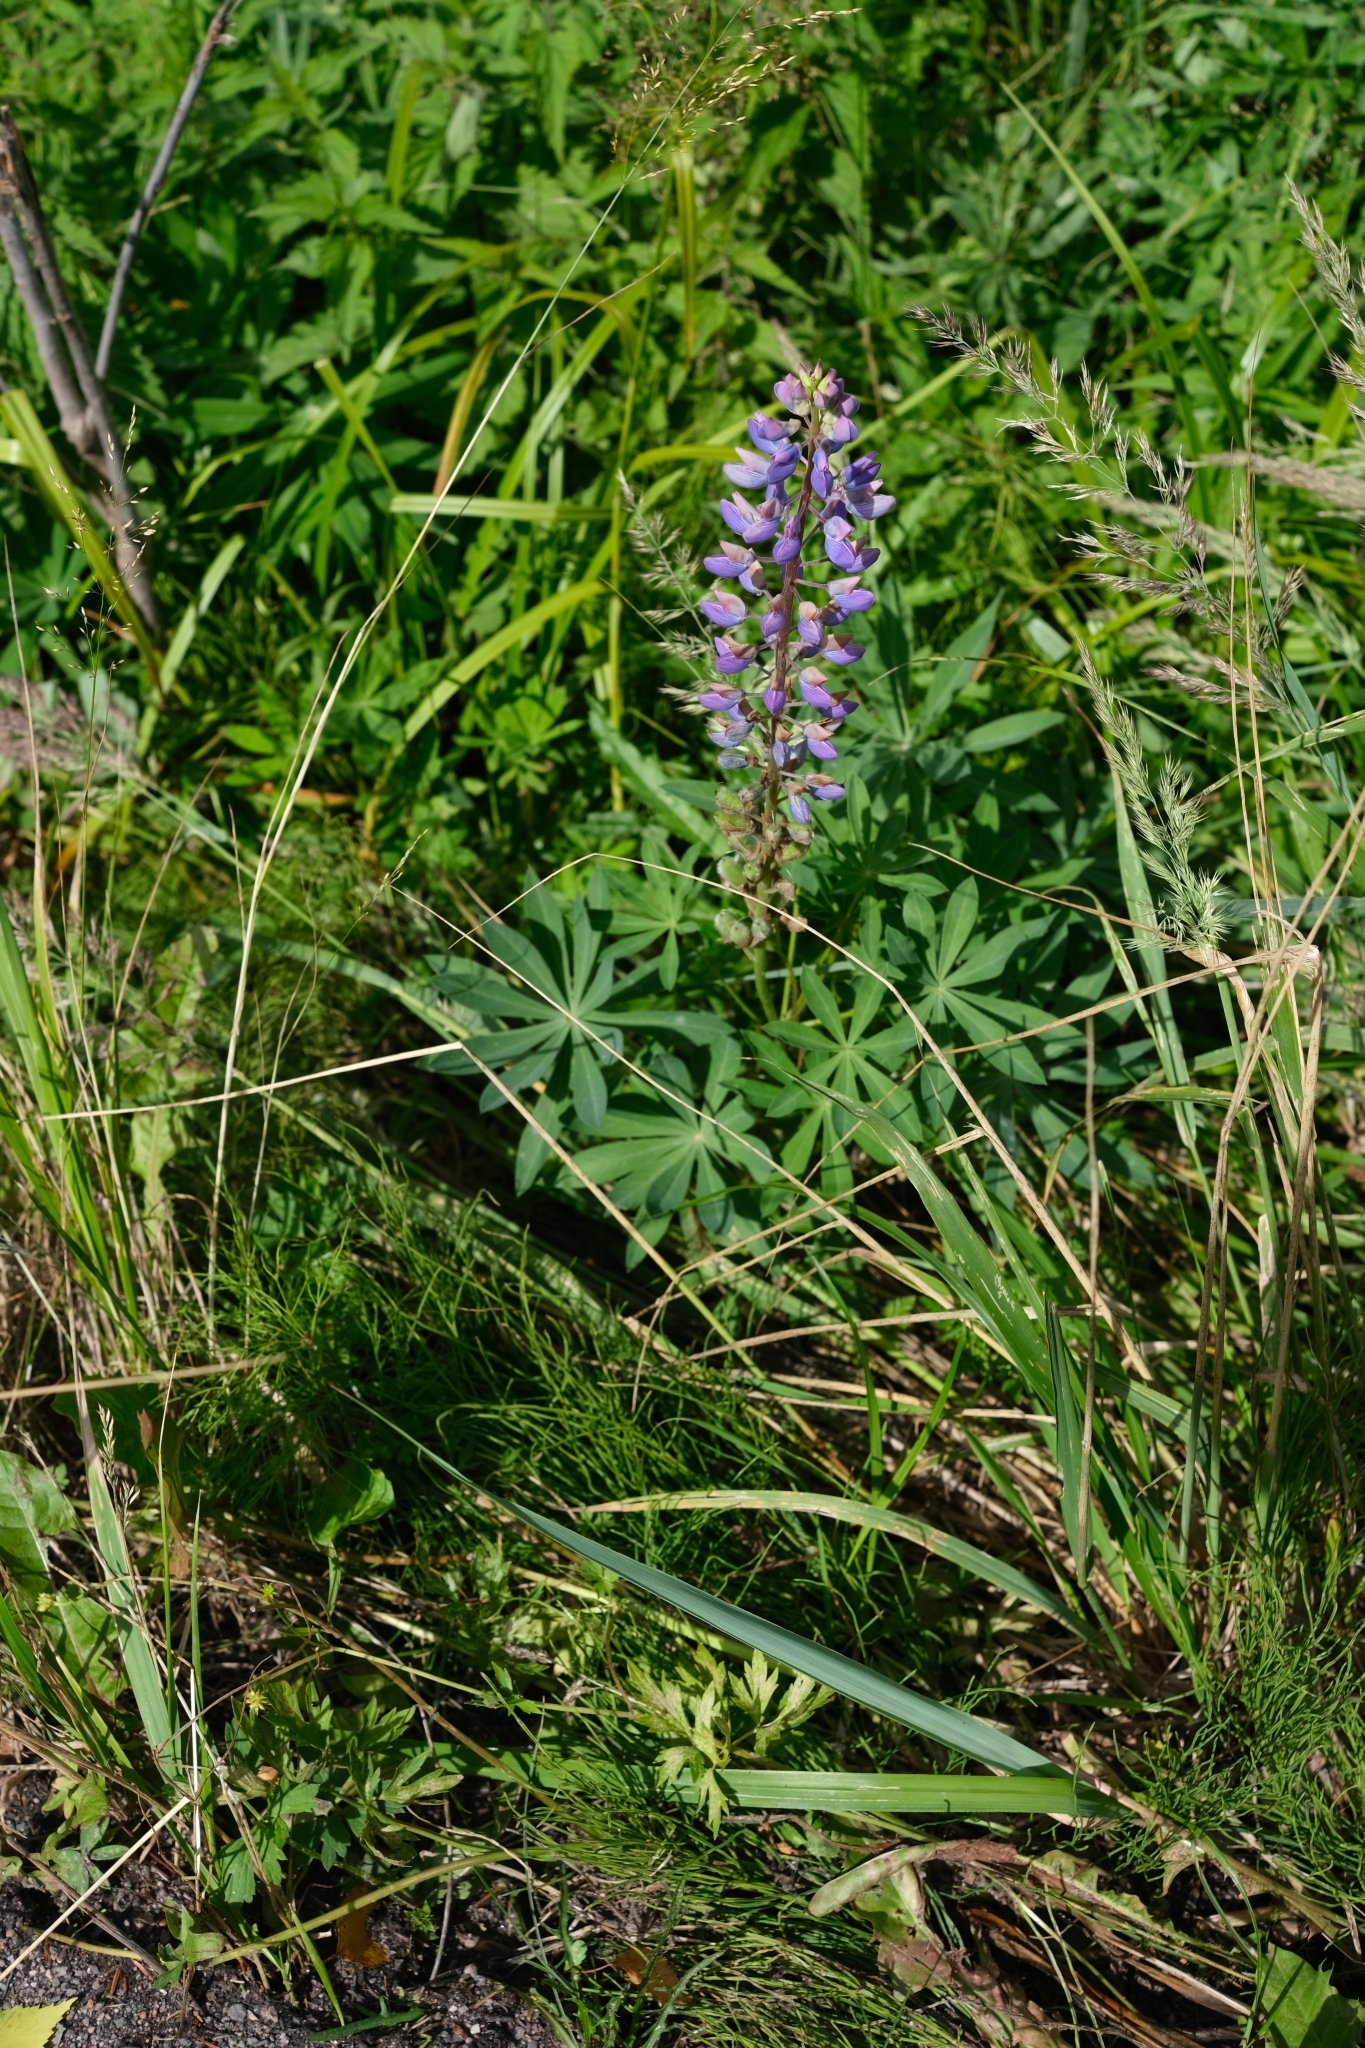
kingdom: Plantae
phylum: Tracheophyta
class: Magnoliopsida
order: Fabales
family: Fabaceae
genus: Lupinus
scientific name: Lupinus polyphyllus
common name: Garden lupin
